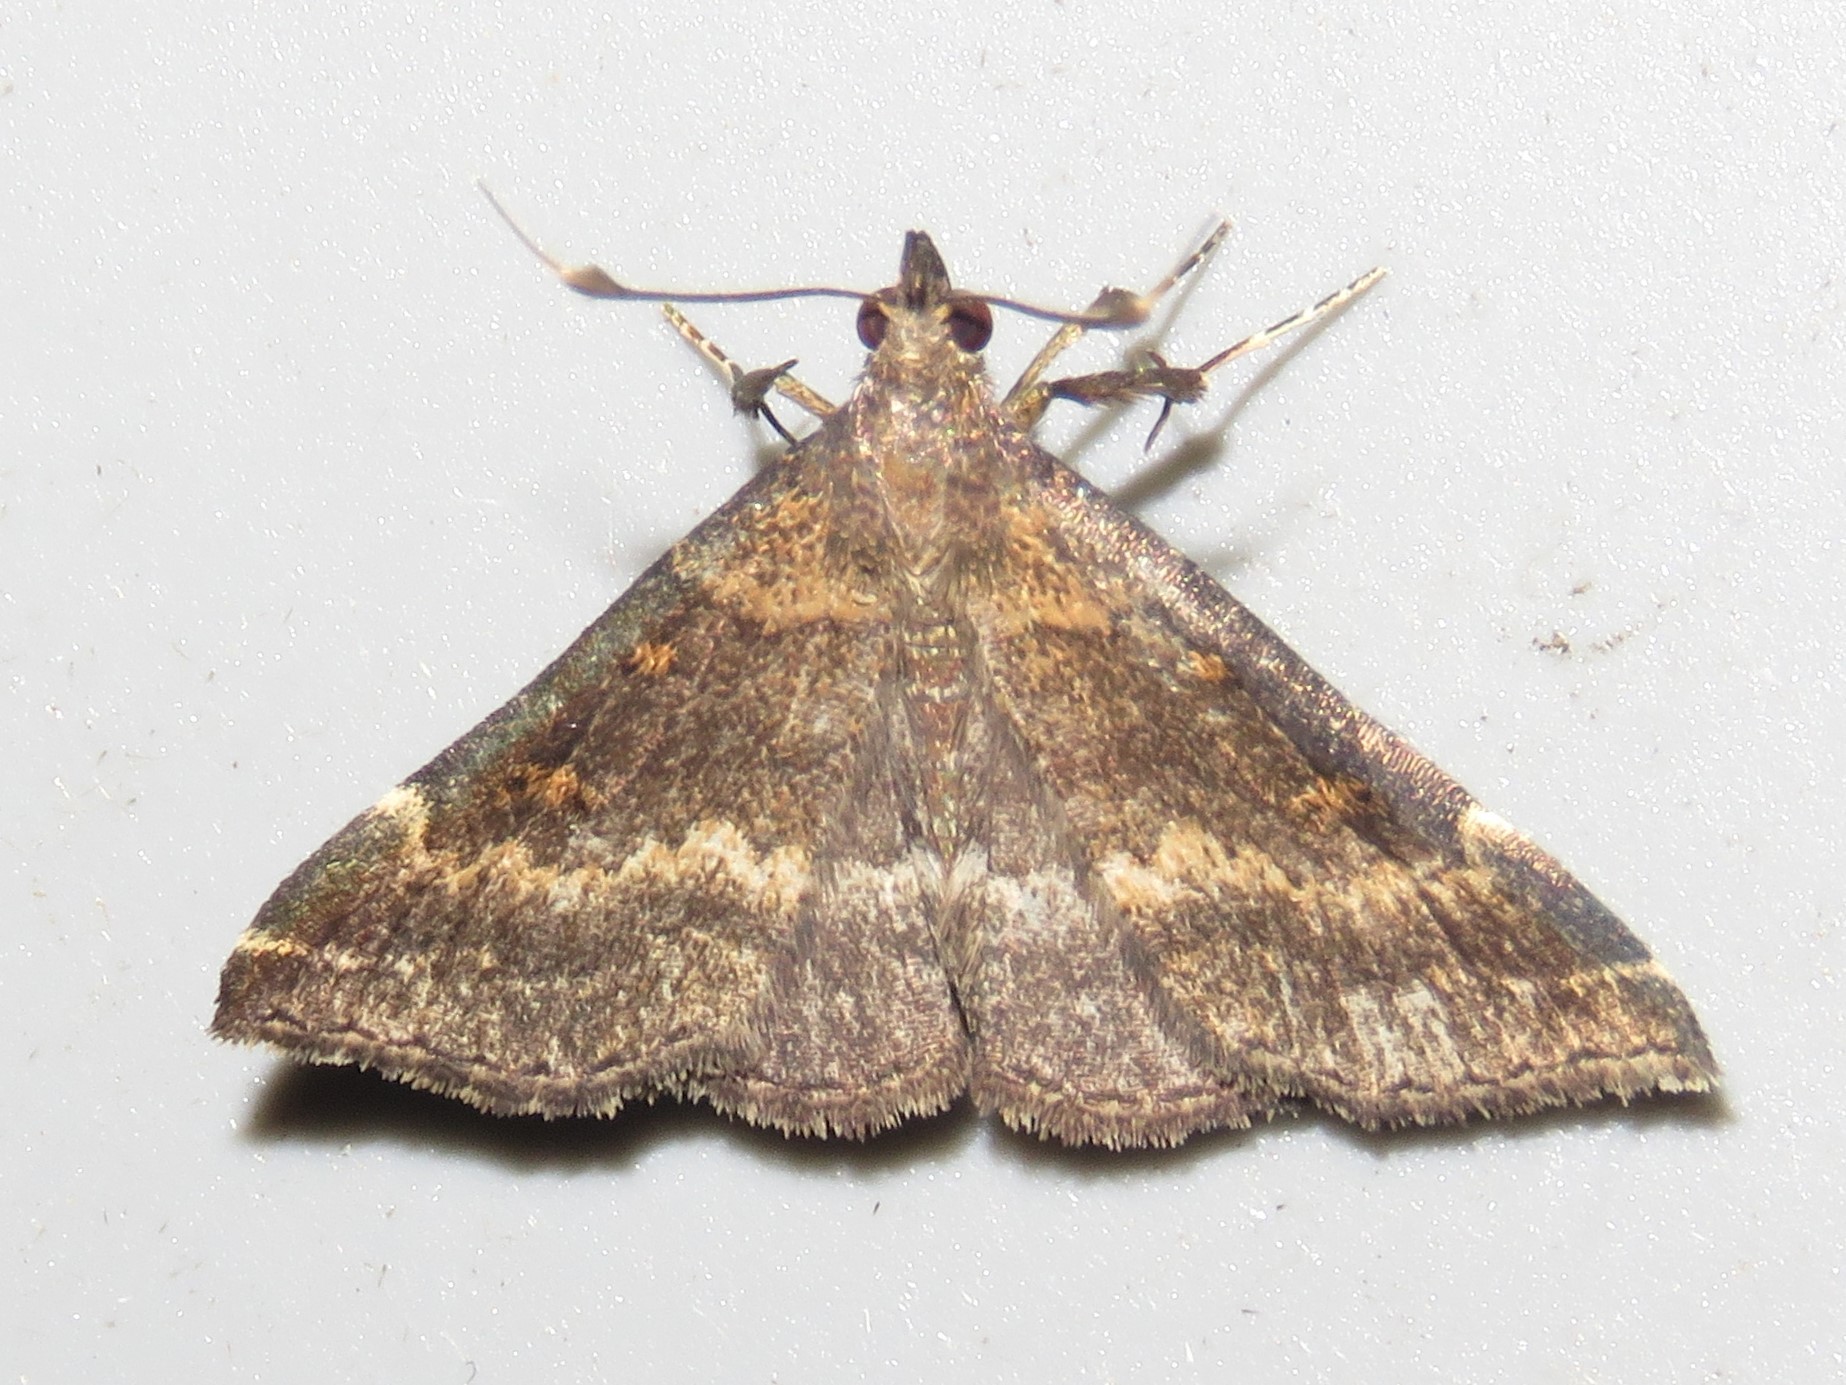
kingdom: Animalia
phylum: Arthropoda
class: Insecta
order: Lepidoptera
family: Erebidae
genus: Renia
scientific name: Renia factiosalis
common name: Sociable renia moth
